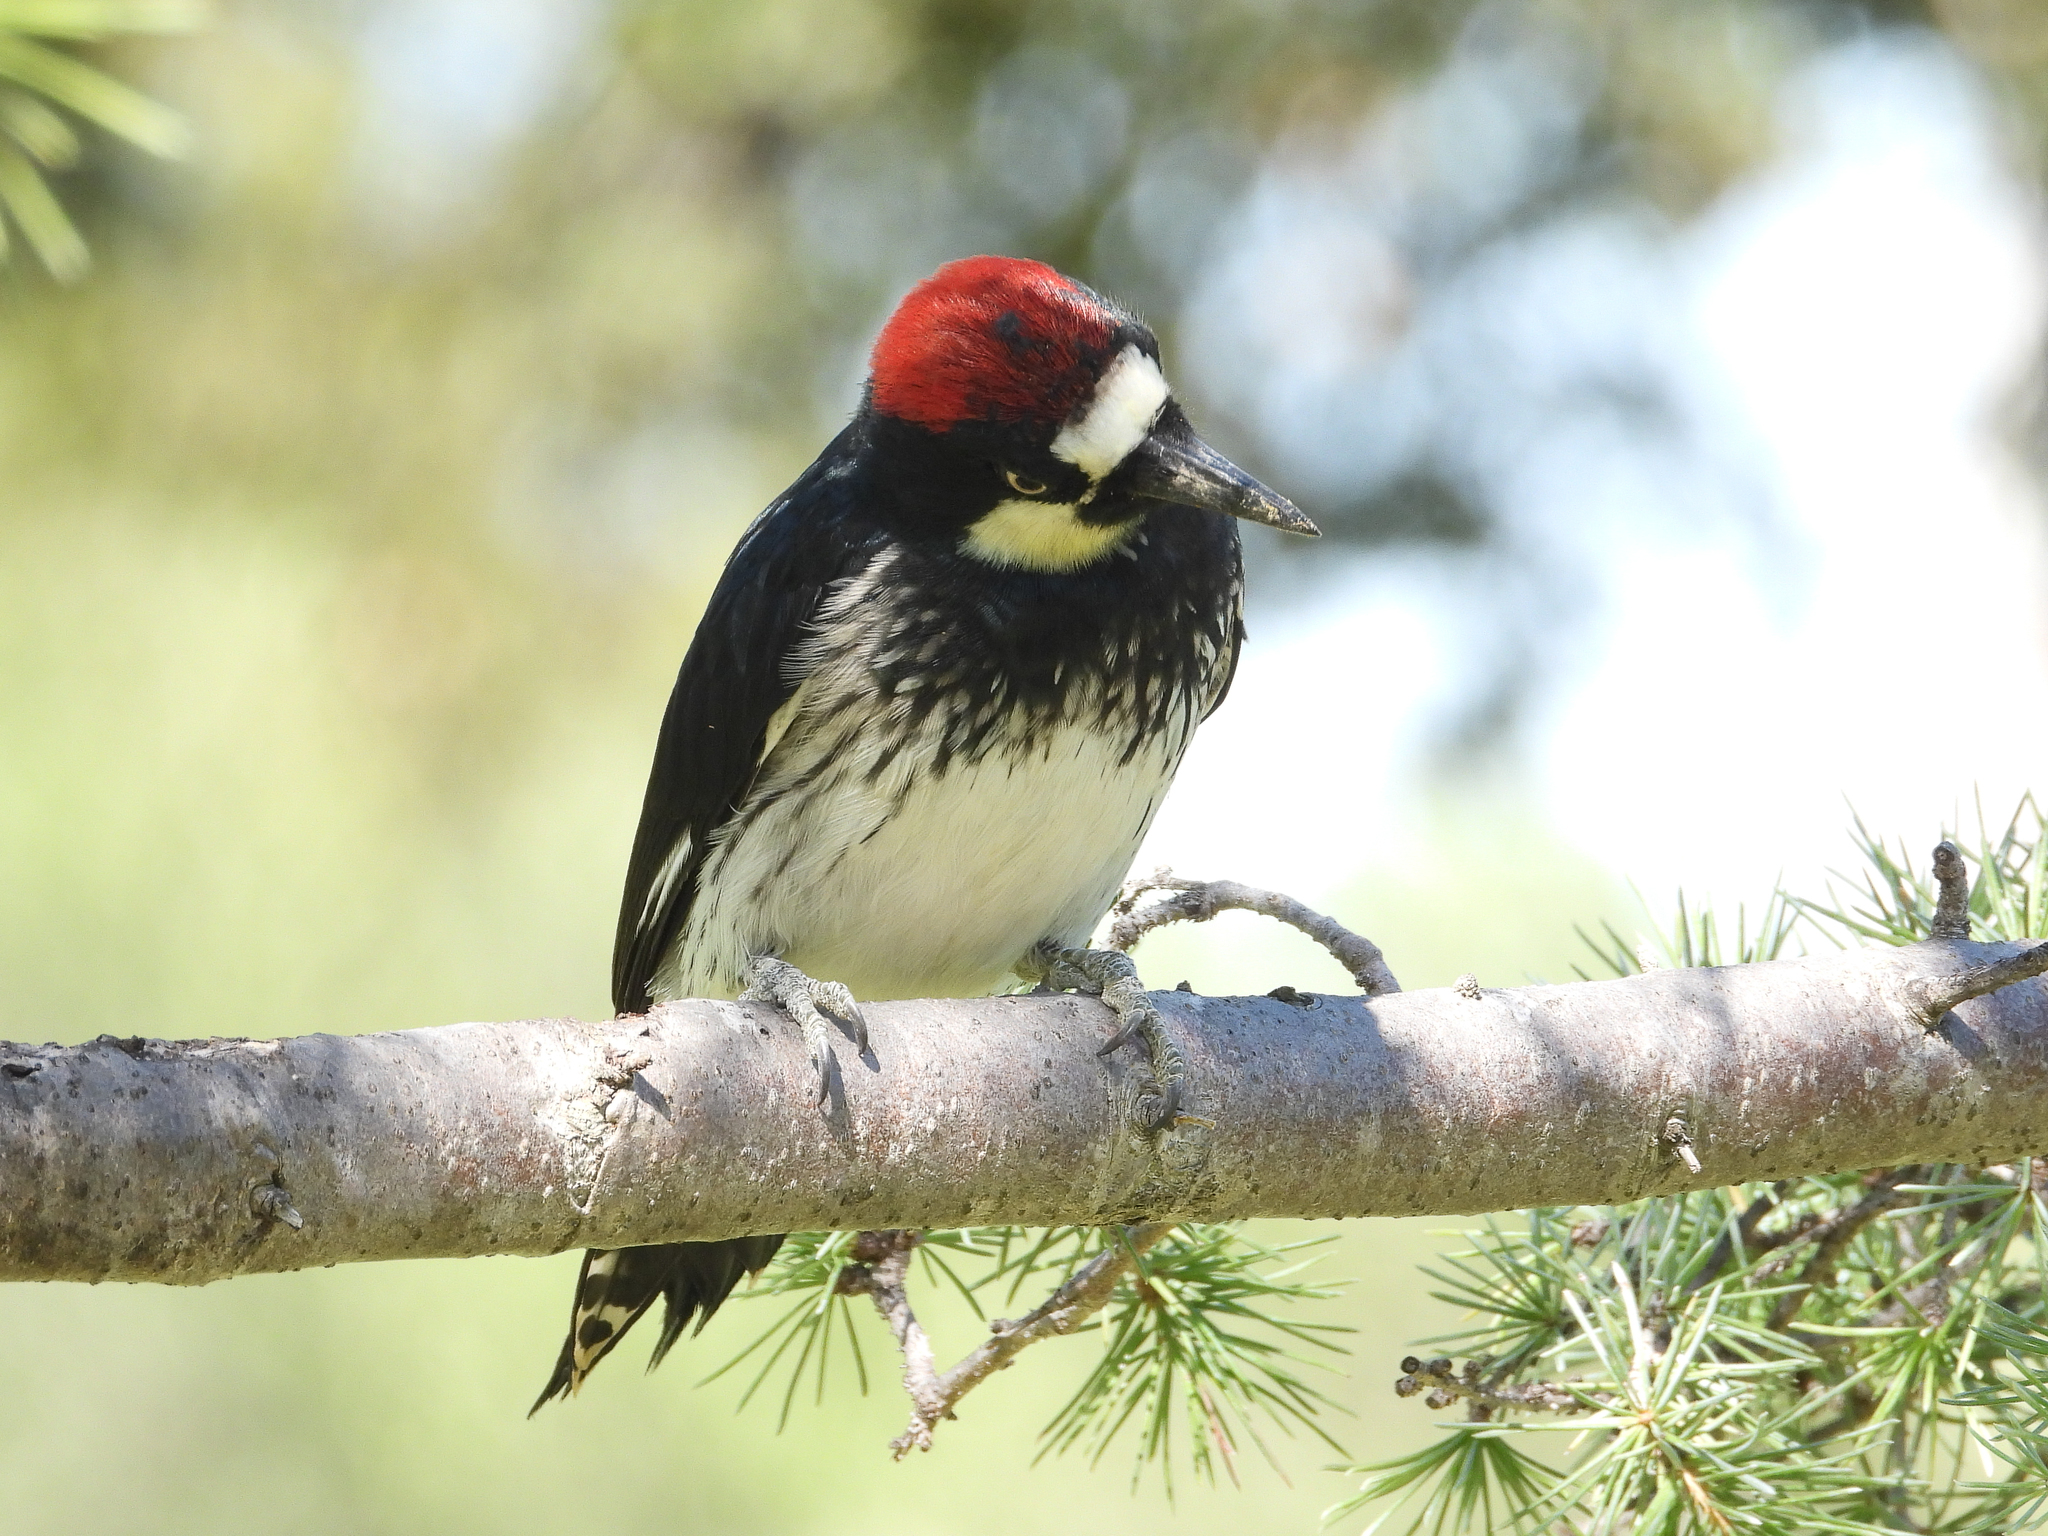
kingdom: Animalia
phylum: Chordata
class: Aves
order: Piciformes
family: Picidae
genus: Melanerpes
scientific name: Melanerpes formicivorus
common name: Acorn woodpecker
